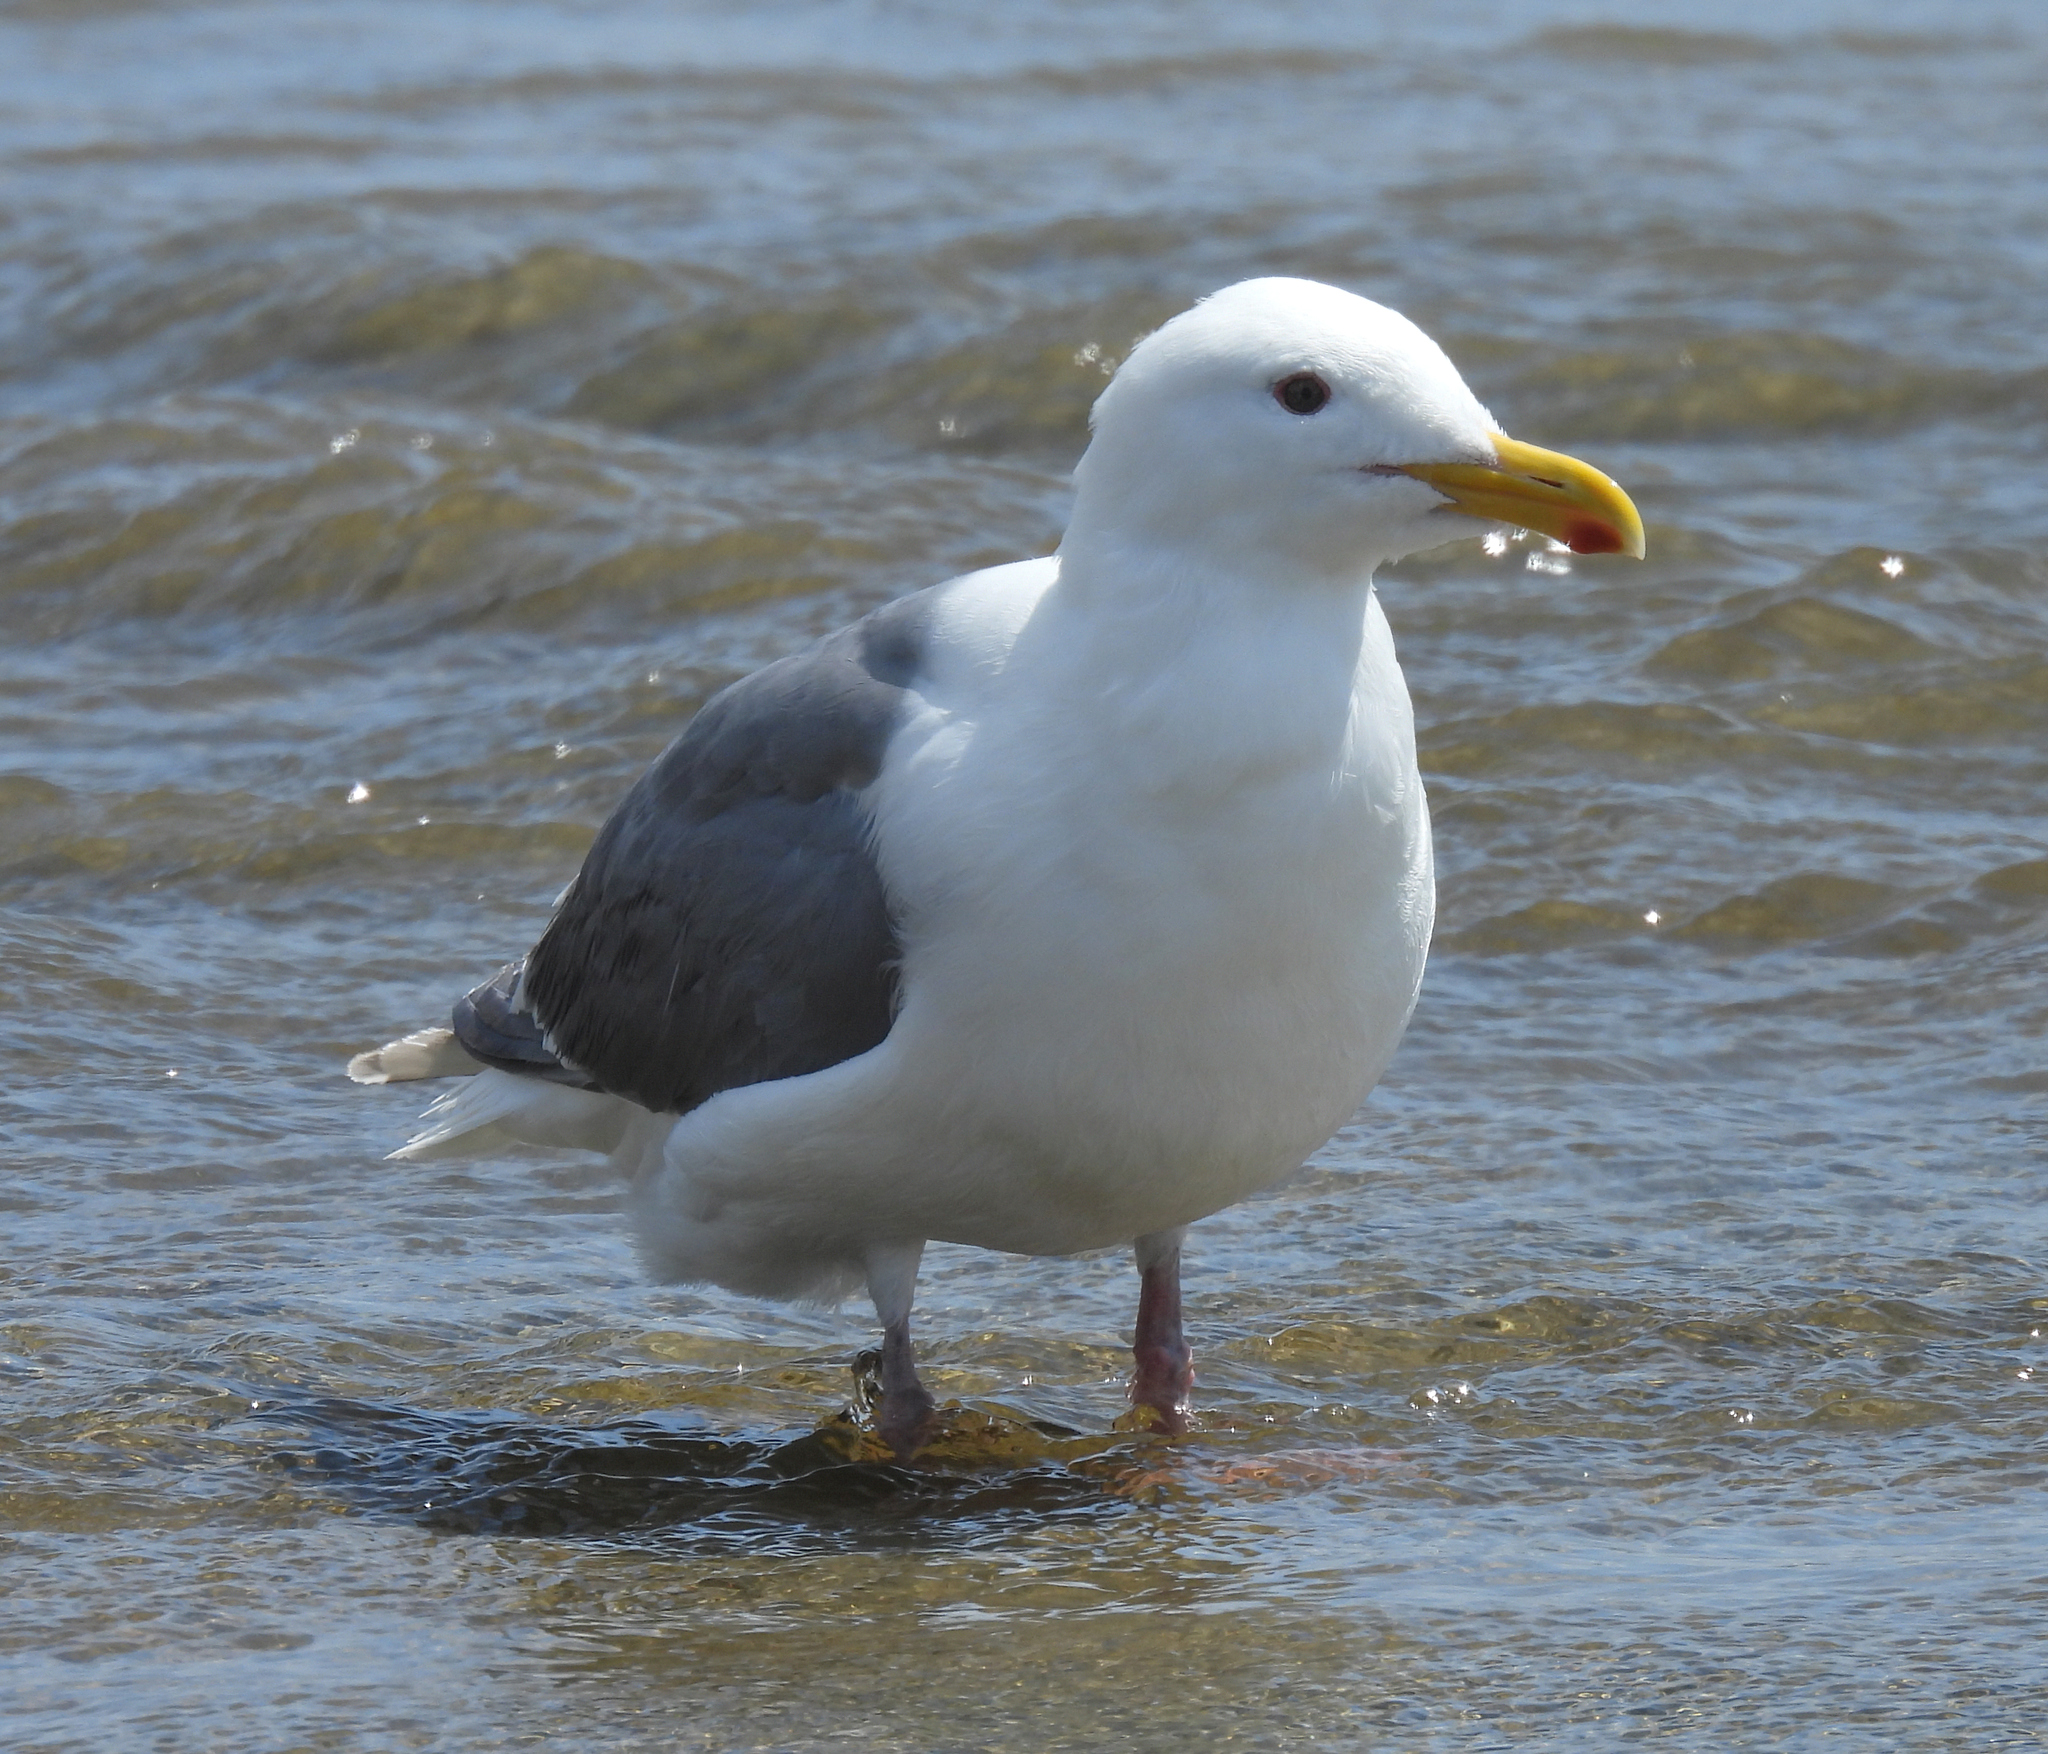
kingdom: Animalia
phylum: Chordata
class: Aves
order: Charadriiformes
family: Laridae
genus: Larus
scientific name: Larus glaucescens
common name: Glaucous-winged gull
